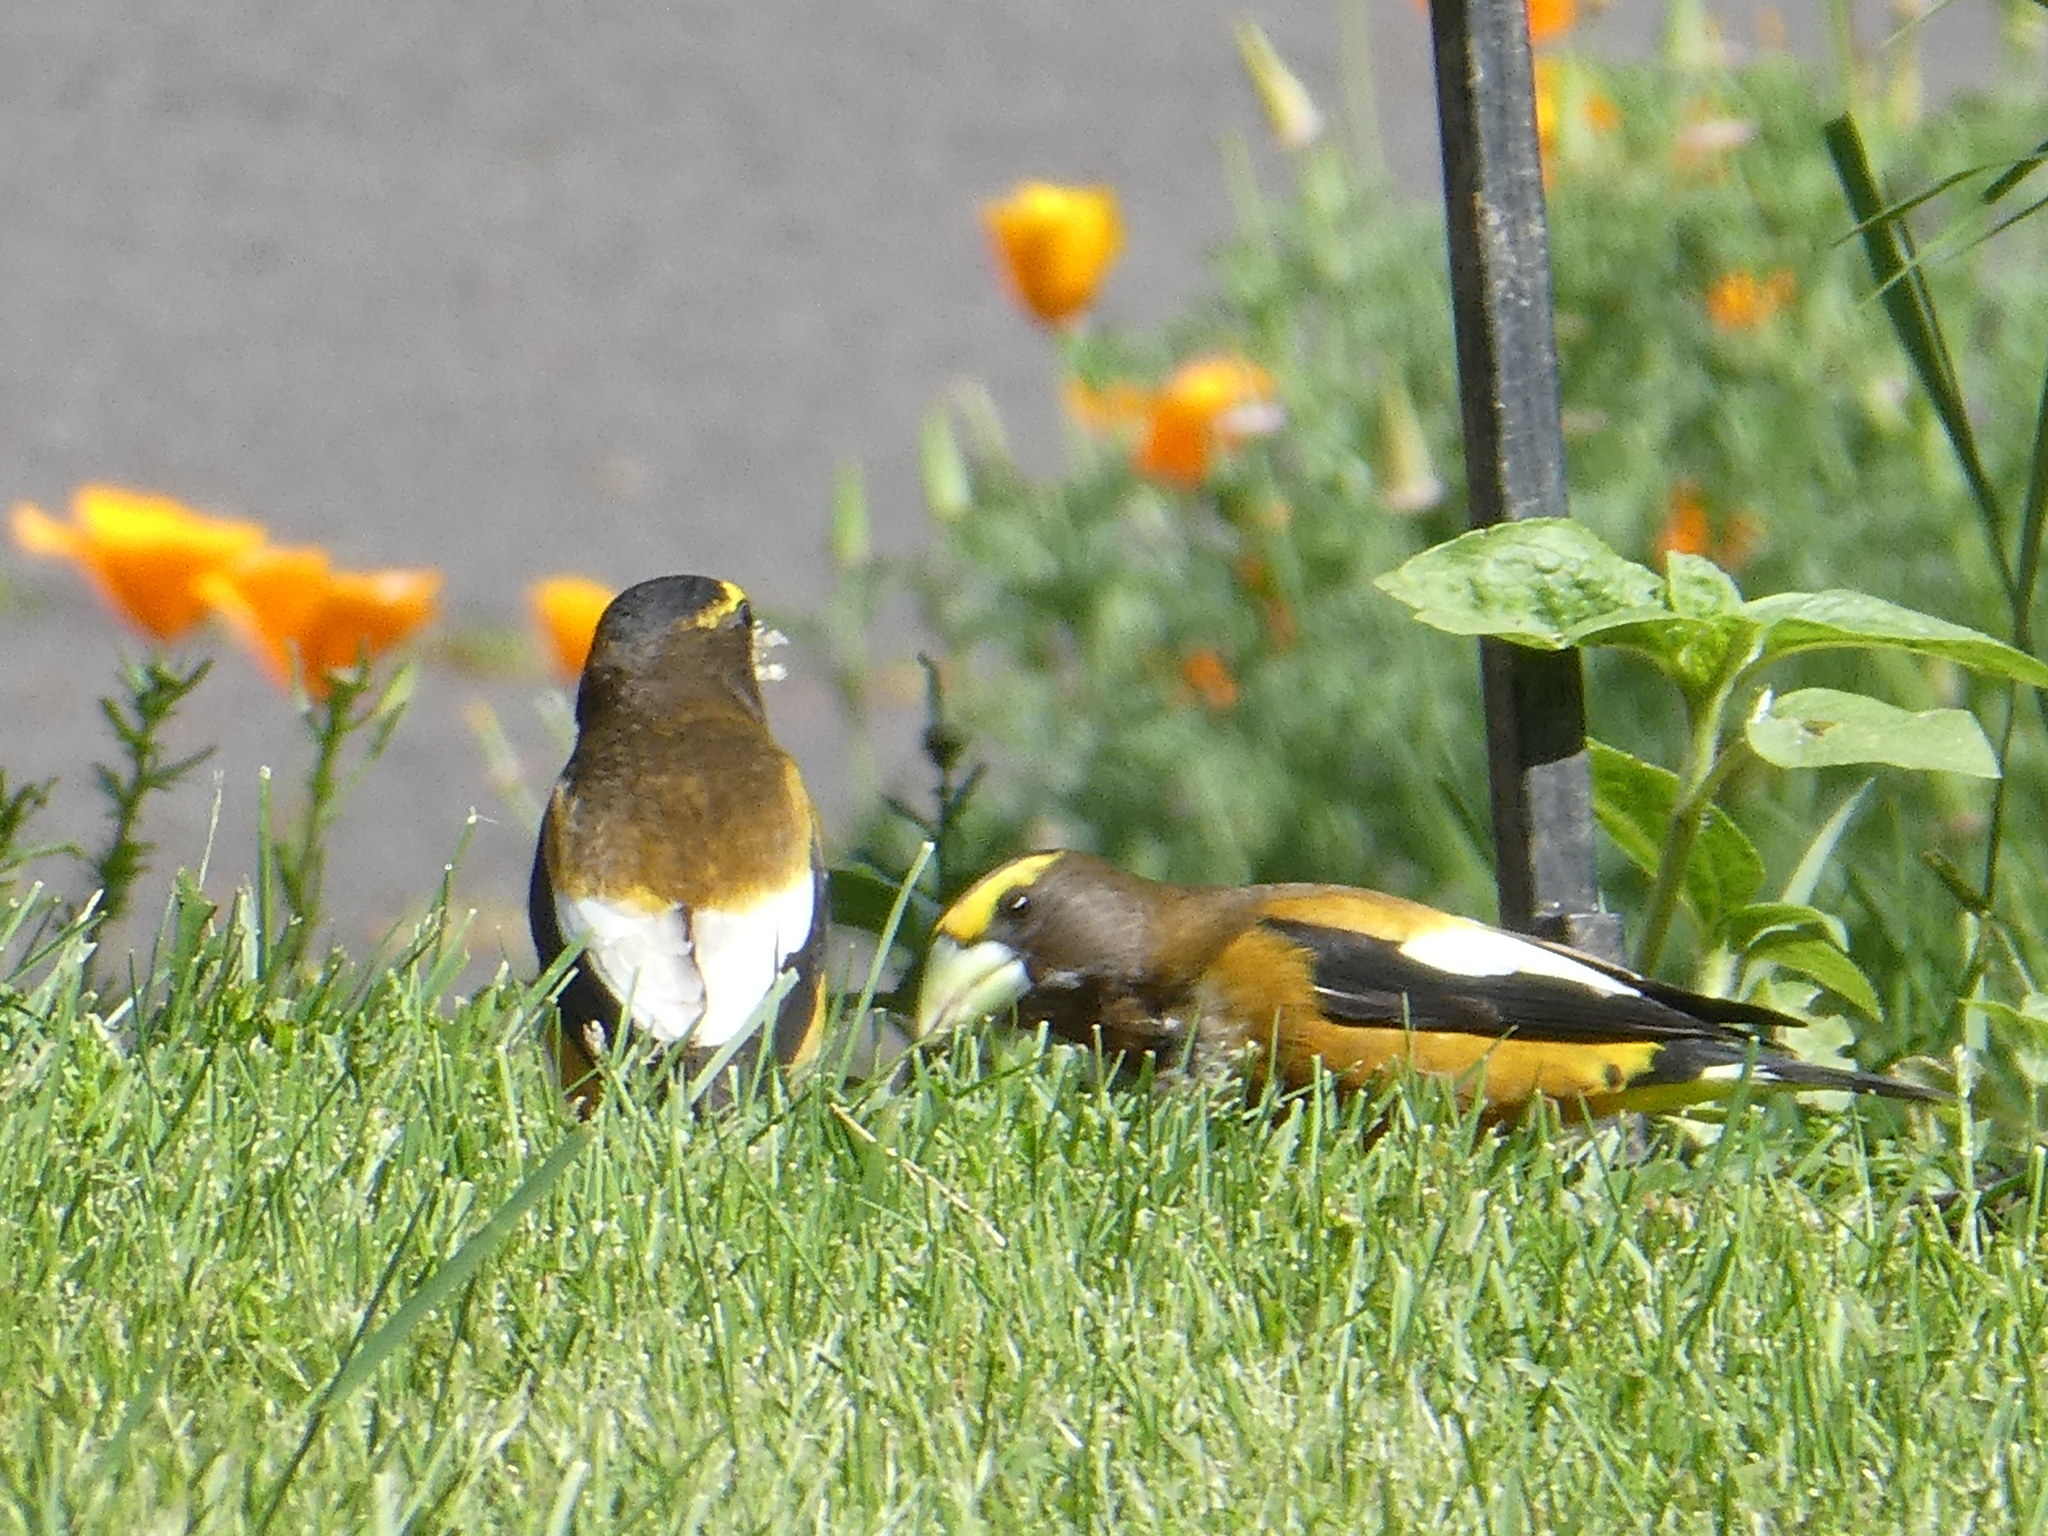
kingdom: Animalia
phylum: Chordata
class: Aves
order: Passeriformes
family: Fringillidae
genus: Hesperiphona
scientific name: Hesperiphona vespertina
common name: Evening grosbeak
